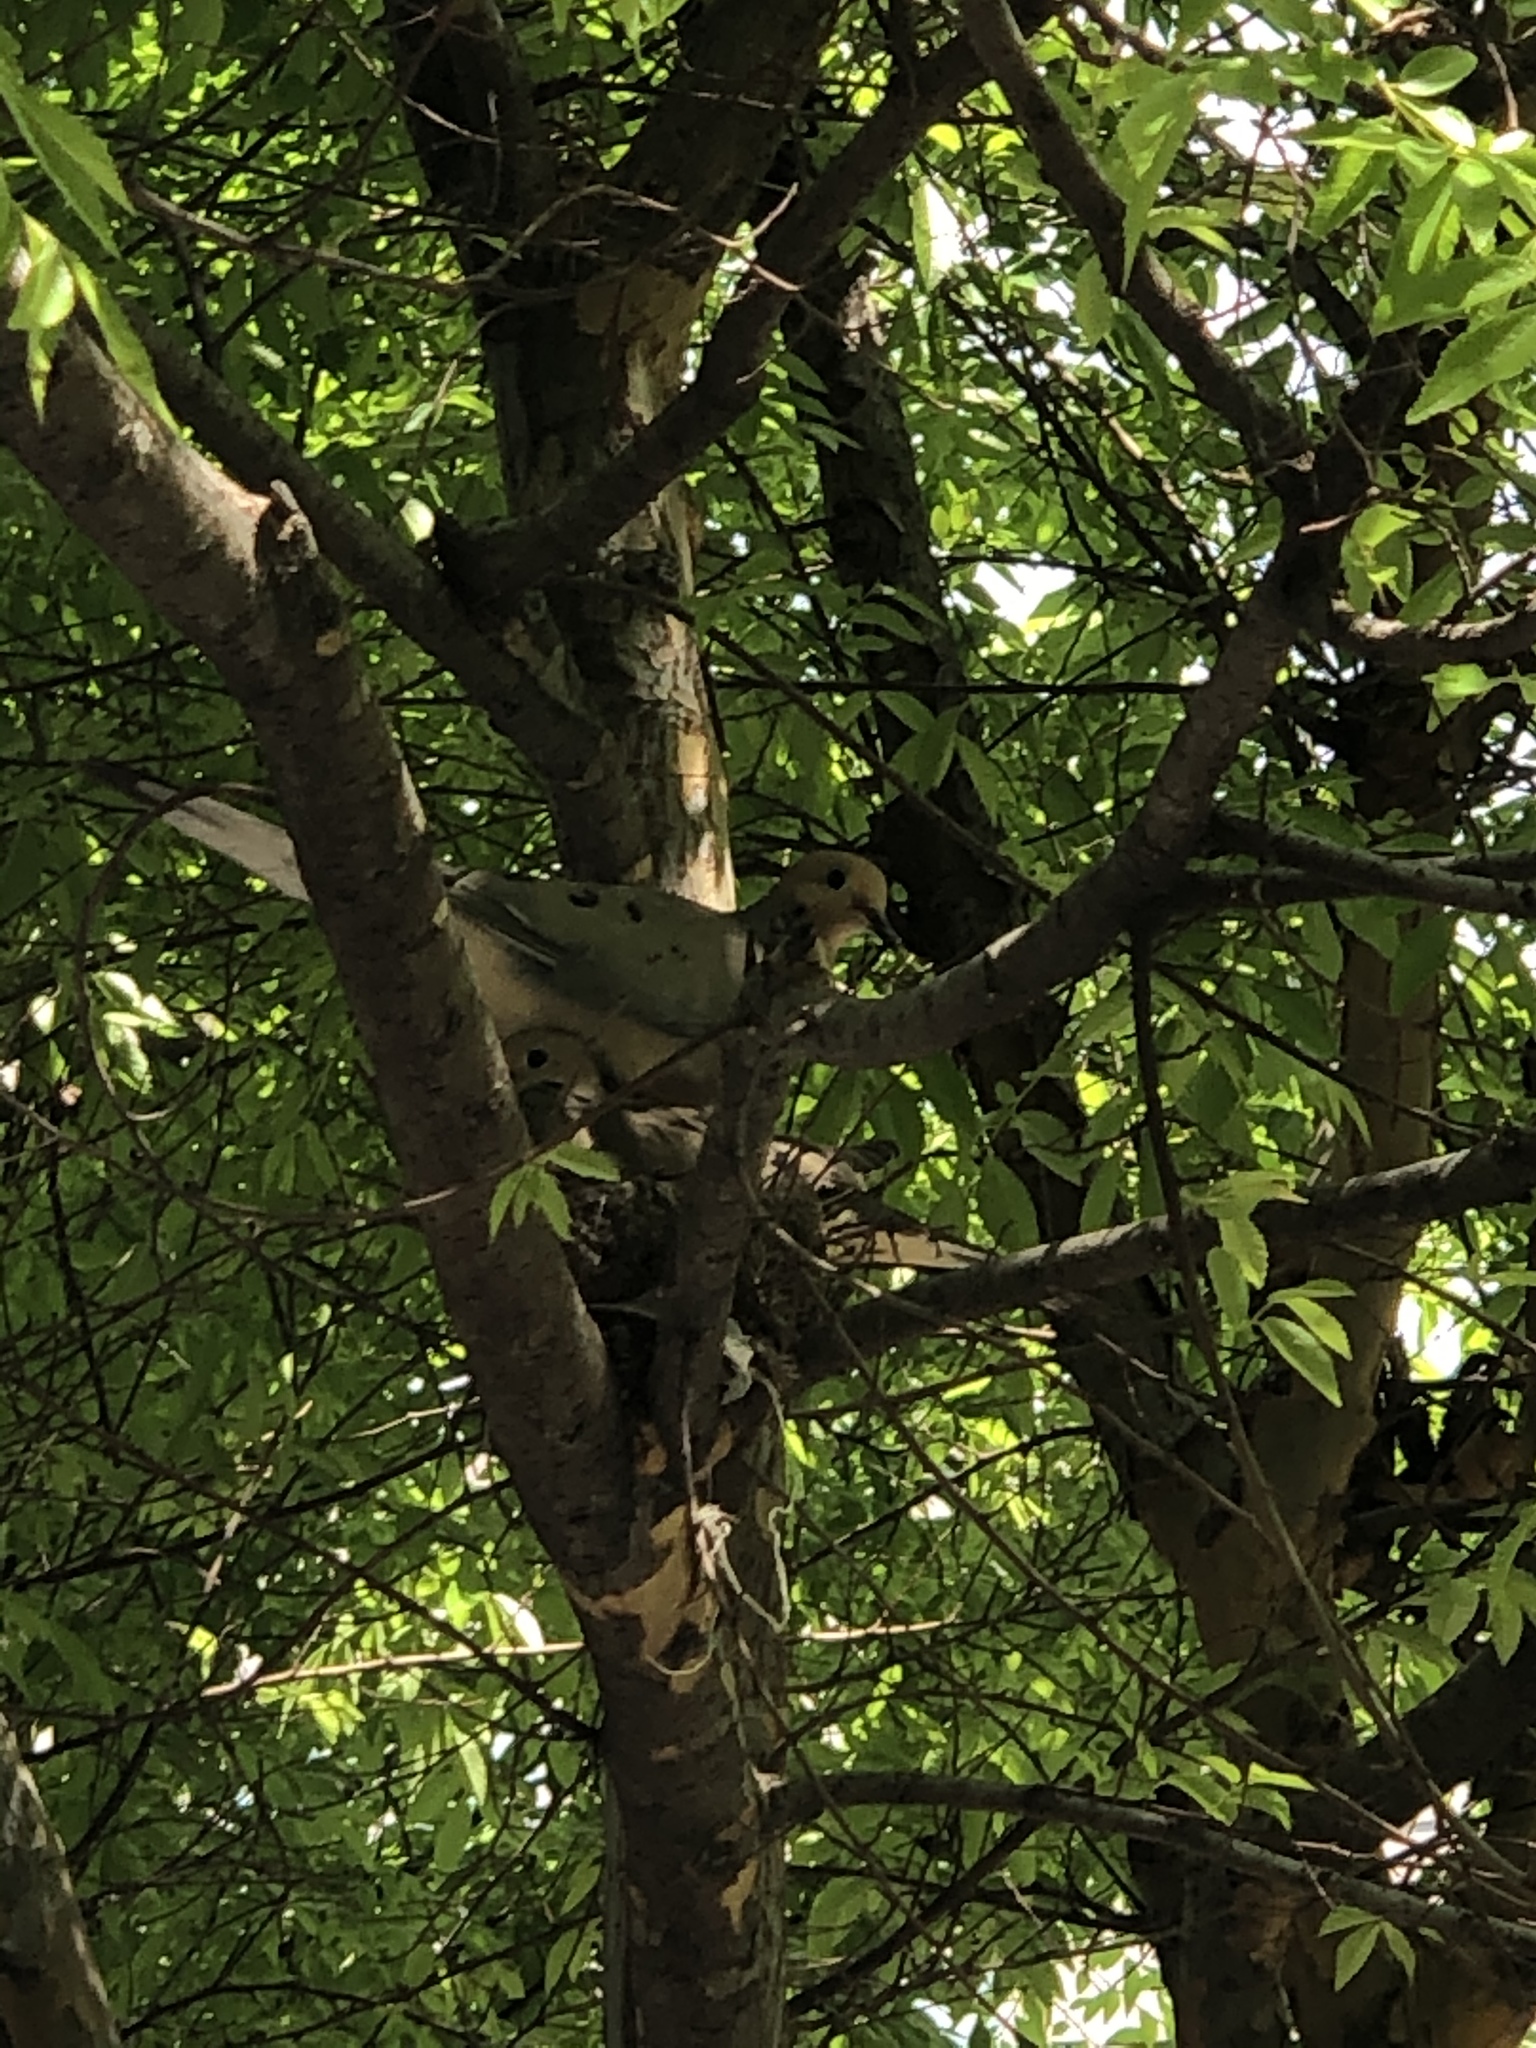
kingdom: Animalia
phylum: Chordata
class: Aves
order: Columbiformes
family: Columbidae
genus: Zenaida
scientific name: Zenaida macroura
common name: Mourning dove
